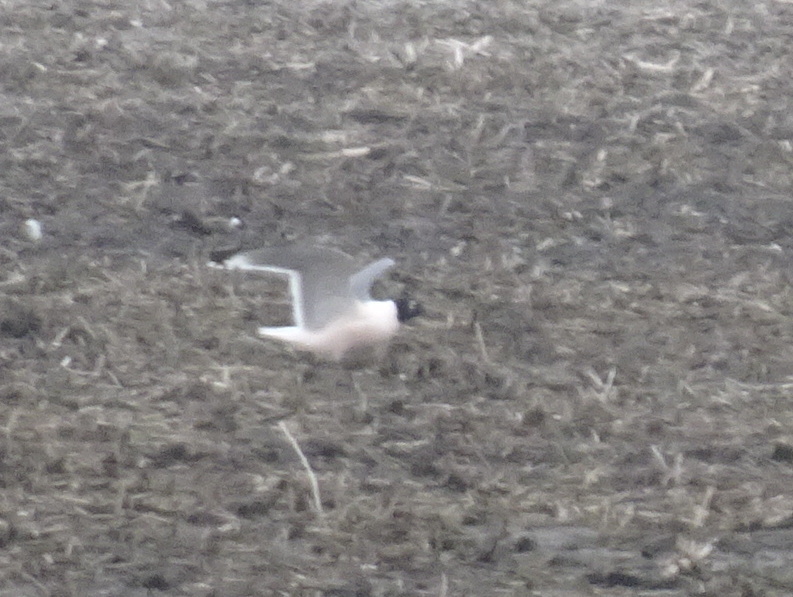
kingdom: Animalia
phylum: Chordata
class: Aves
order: Charadriiformes
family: Laridae
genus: Leucophaeus
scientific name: Leucophaeus pipixcan
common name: Franklin's gull
